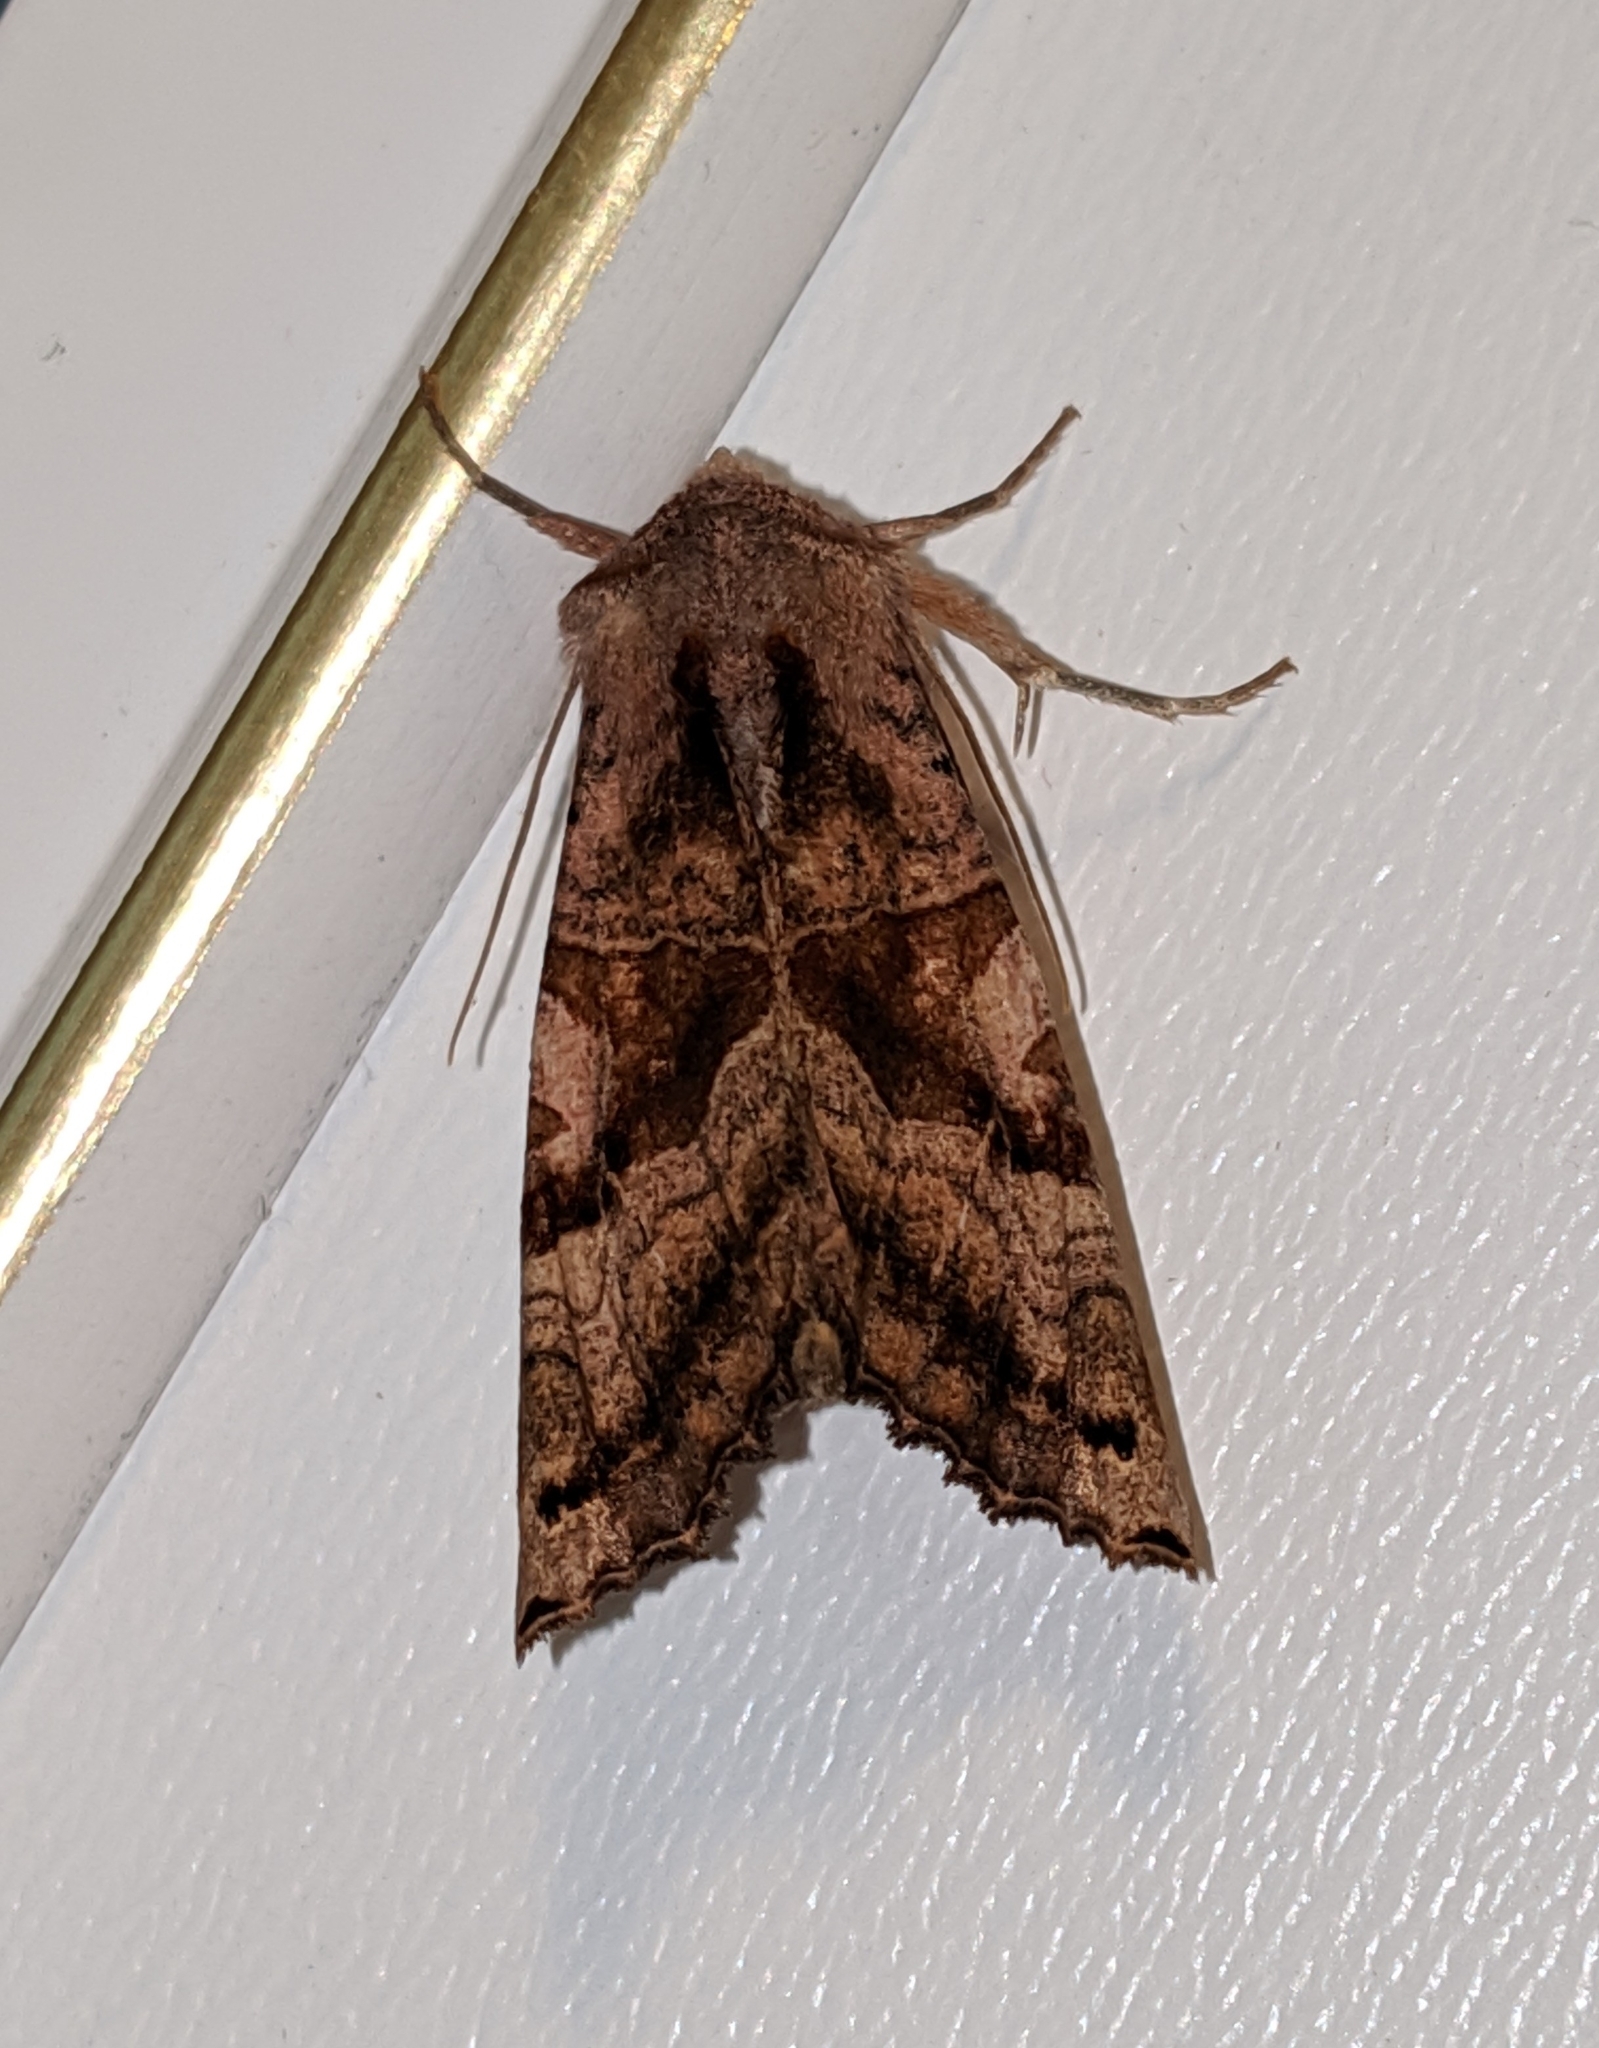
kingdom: Animalia
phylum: Arthropoda
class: Insecta
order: Lepidoptera
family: Noctuidae
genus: Phlogophora
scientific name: Phlogophora periculosa
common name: Brown angle shades
